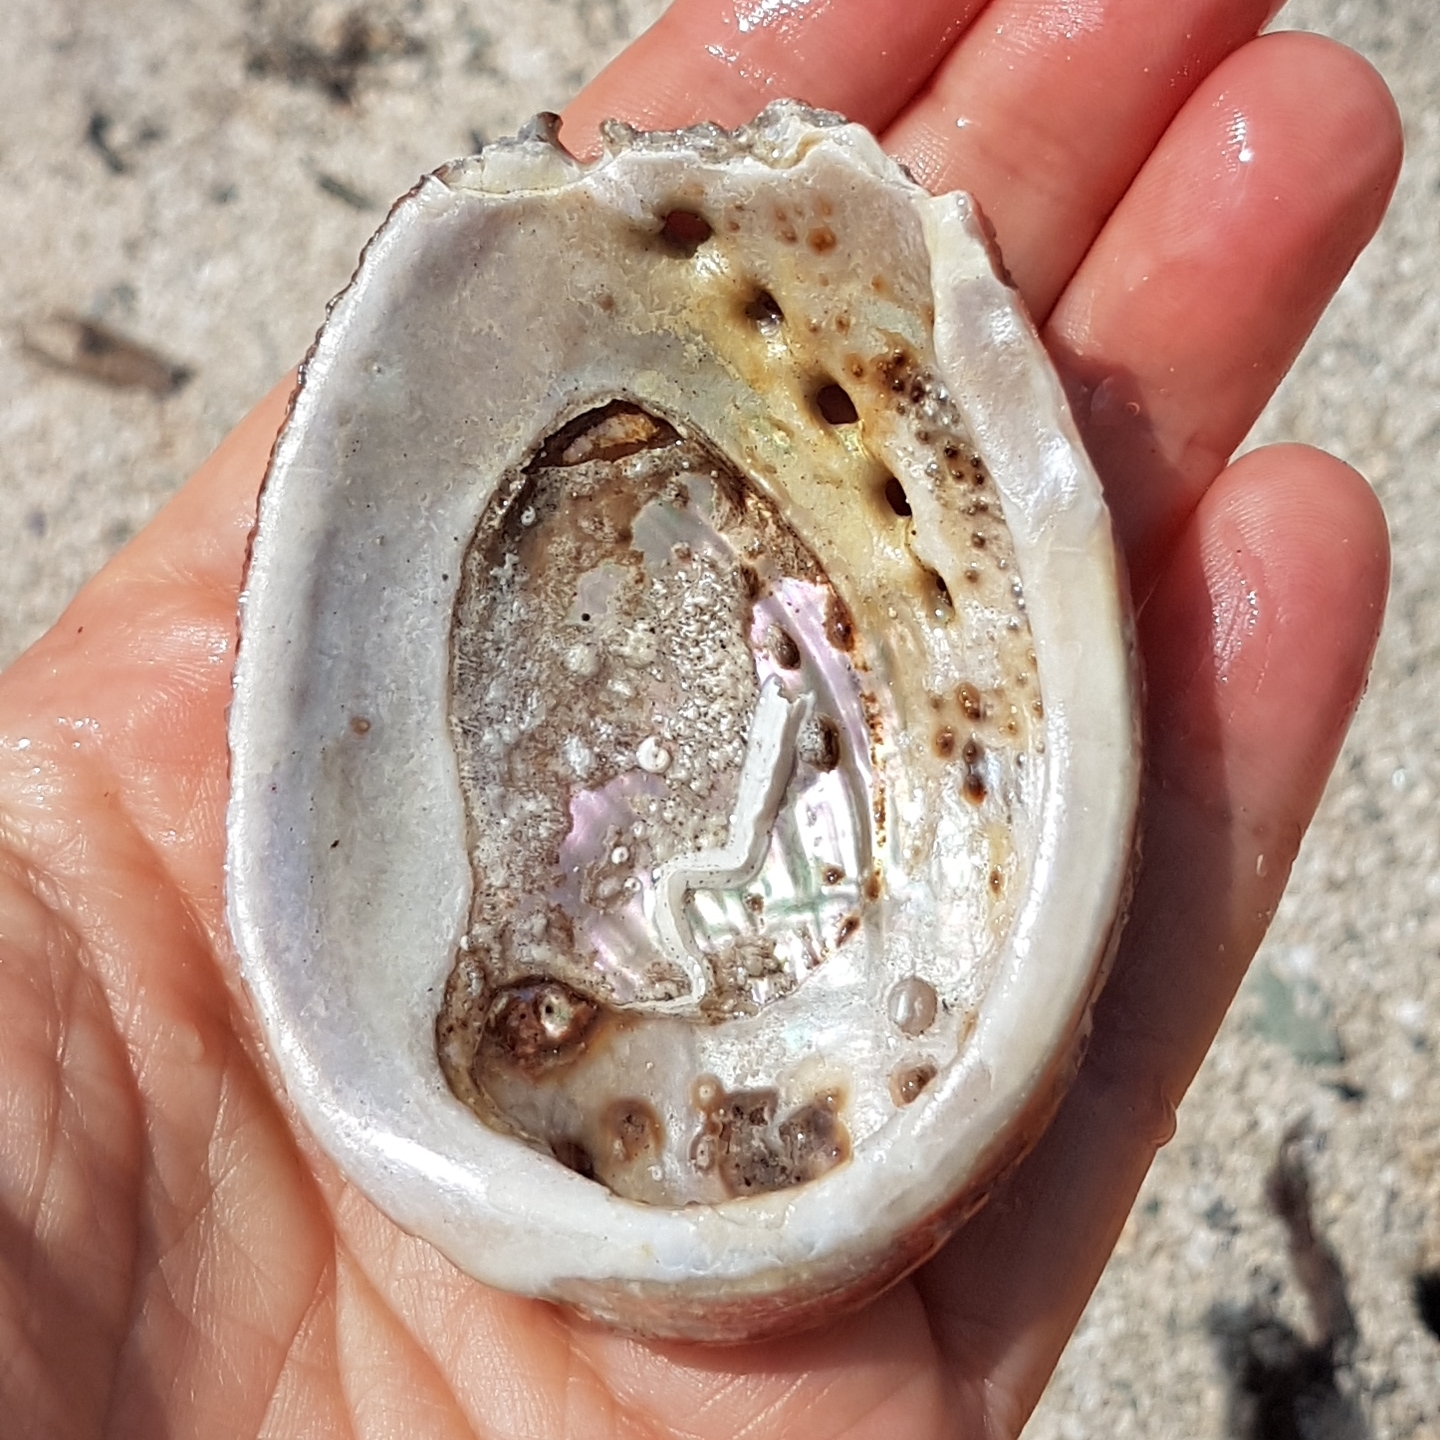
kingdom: Animalia
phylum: Mollusca
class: Gastropoda
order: Lepetellida
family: Haliotidae
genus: Haliotis
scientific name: Haliotis tuberculata
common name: Green ormer
